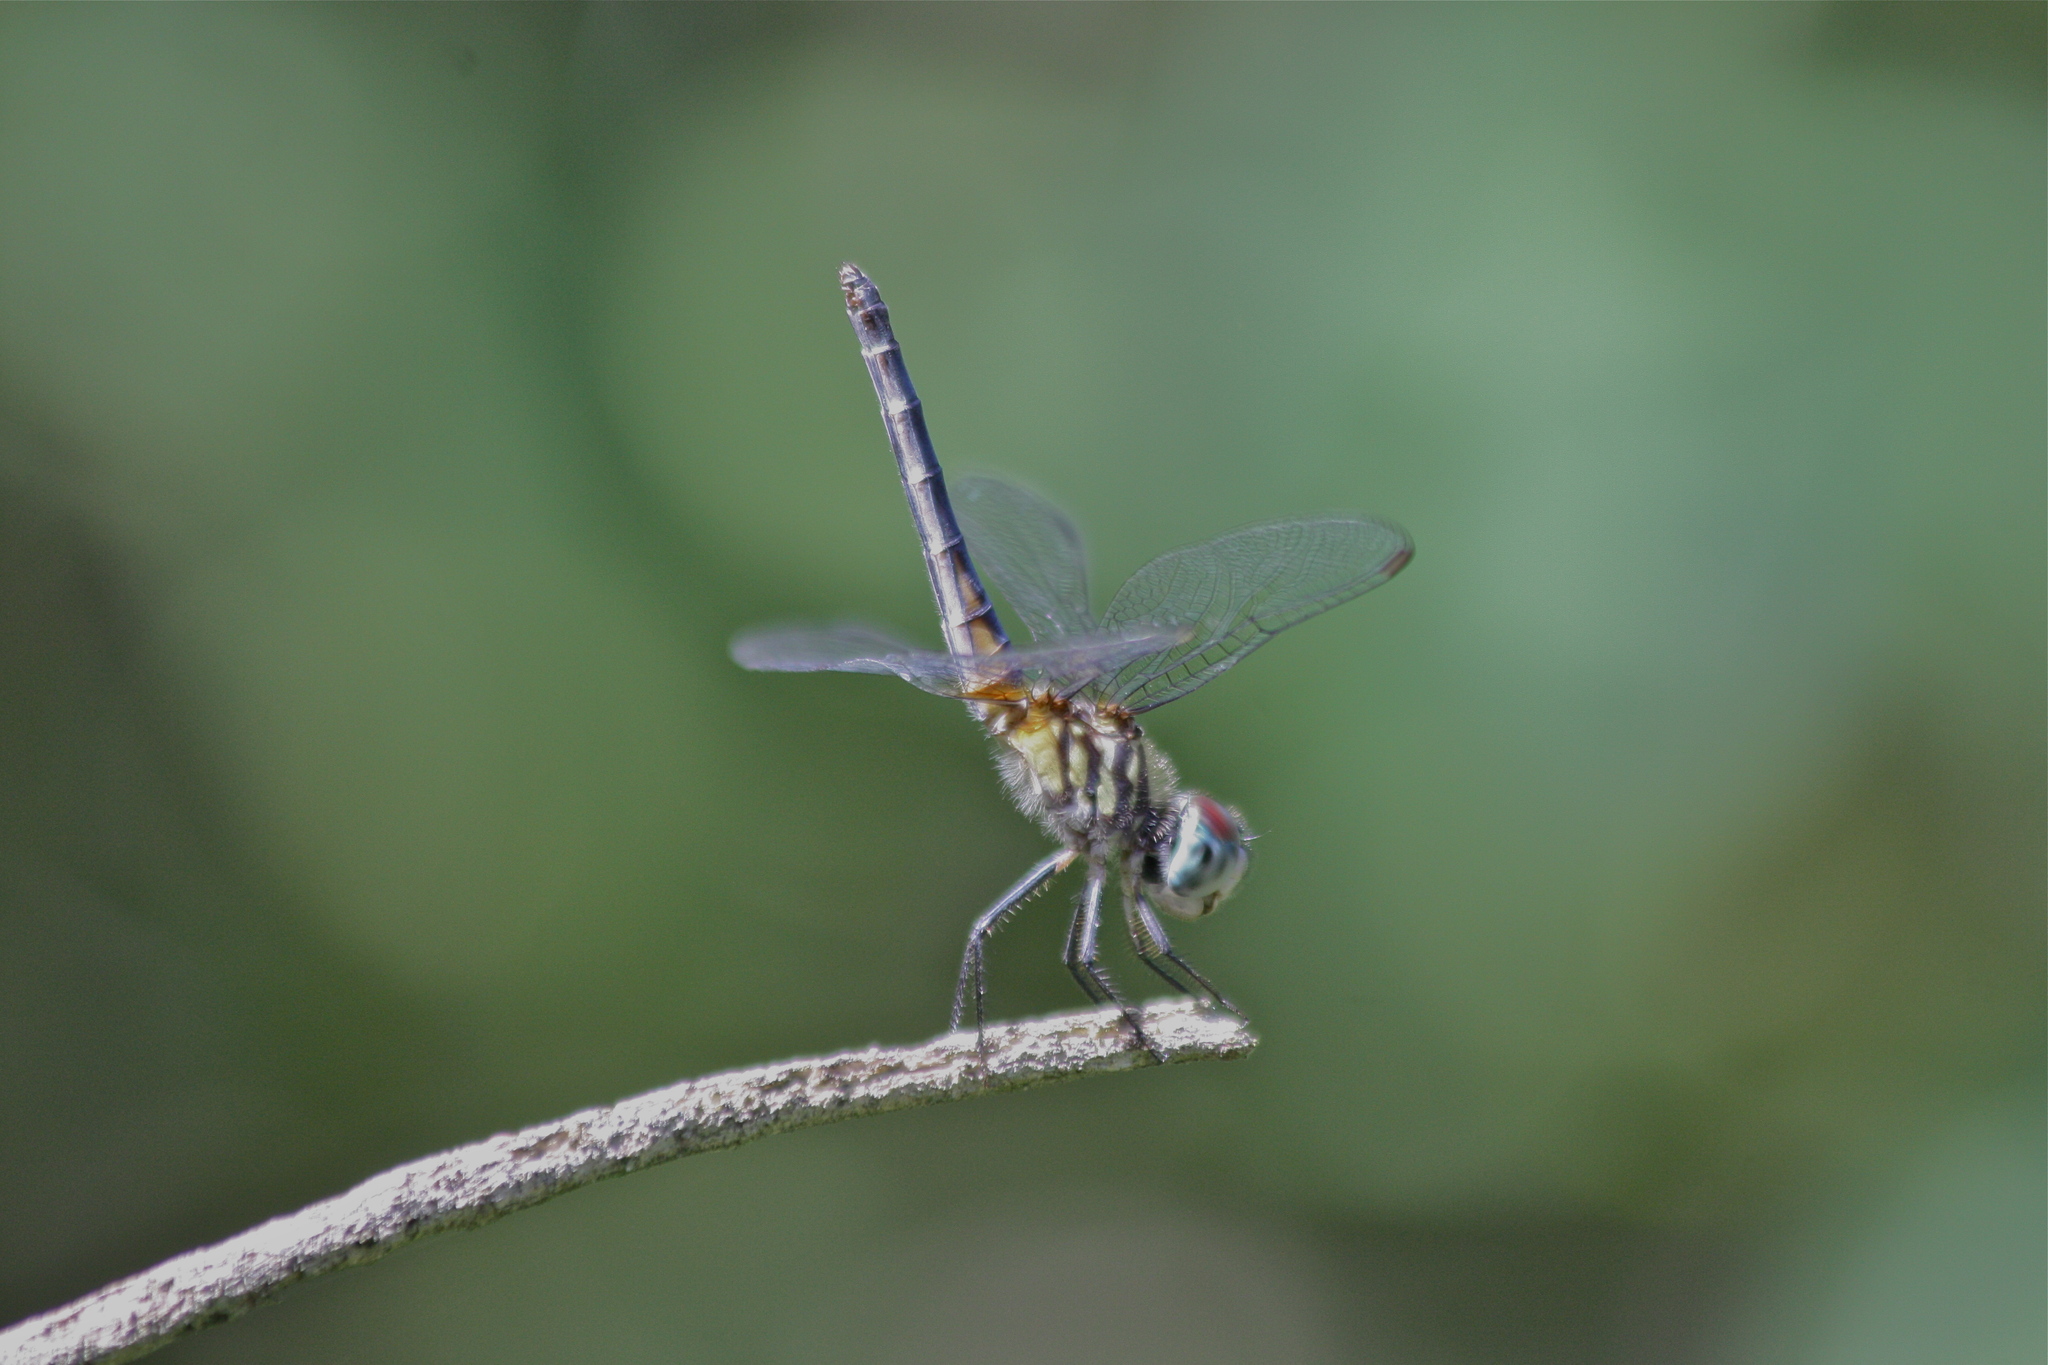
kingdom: Animalia
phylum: Arthropoda
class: Insecta
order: Odonata
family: Libellulidae
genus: Pachydiplax
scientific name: Pachydiplax longipennis
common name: Blue dasher
